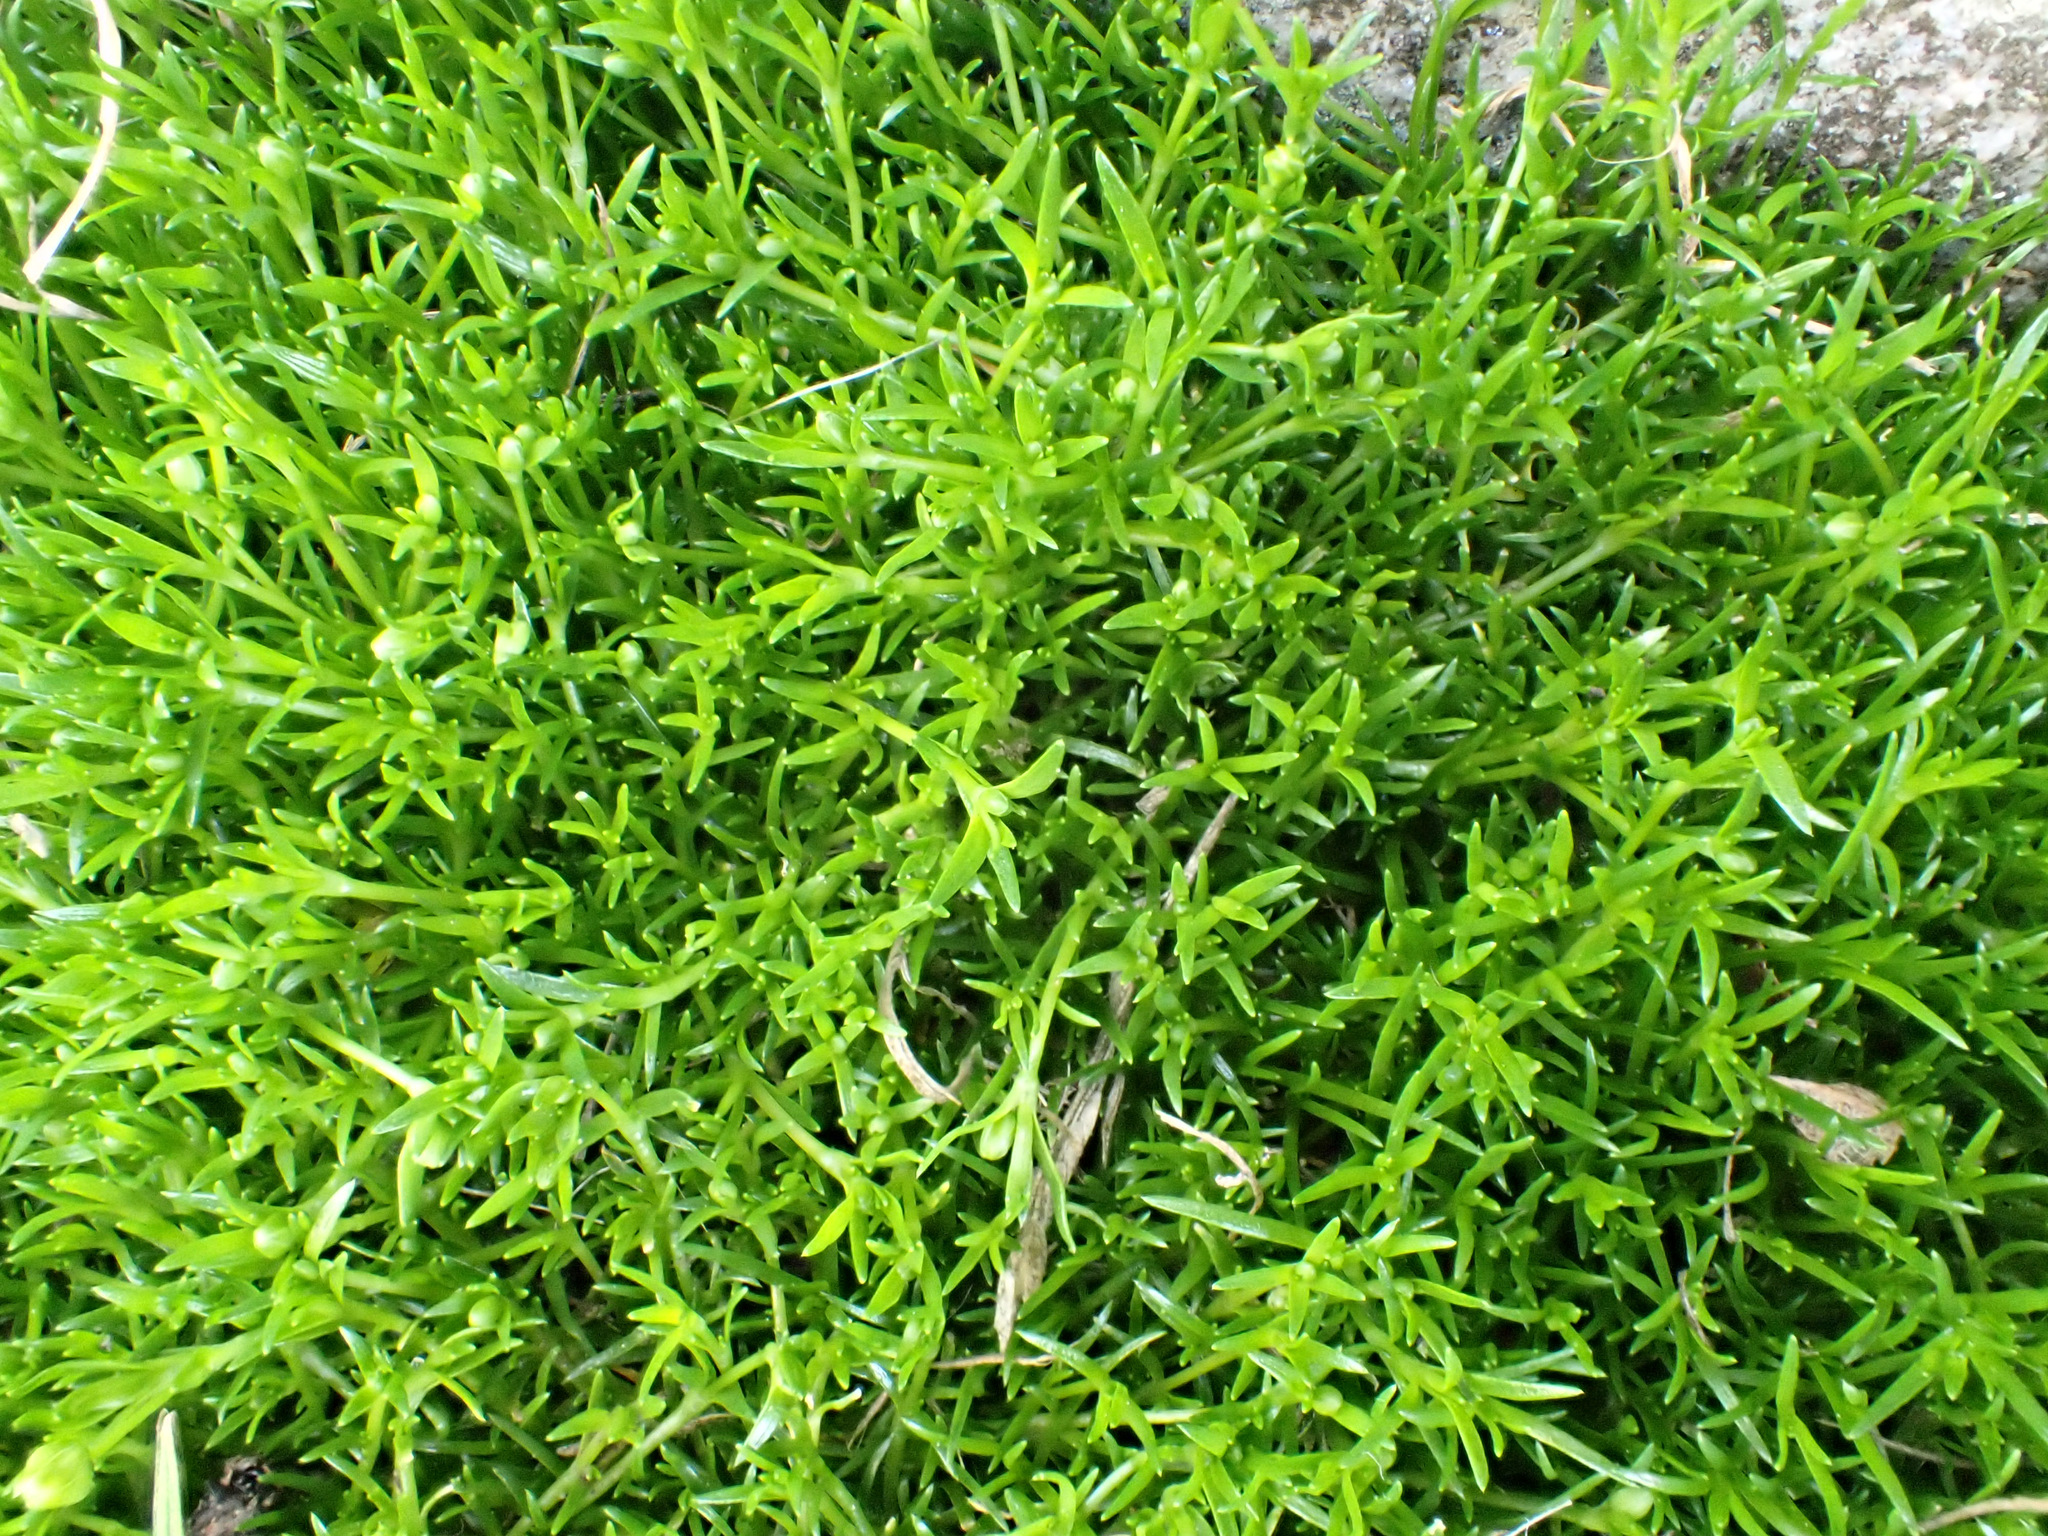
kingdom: Plantae
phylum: Tracheophyta
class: Magnoliopsida
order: Caryophyllales
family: Caryophyllaceae
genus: Sagina
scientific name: Sagina procumbens
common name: Procumbent pearlwort
